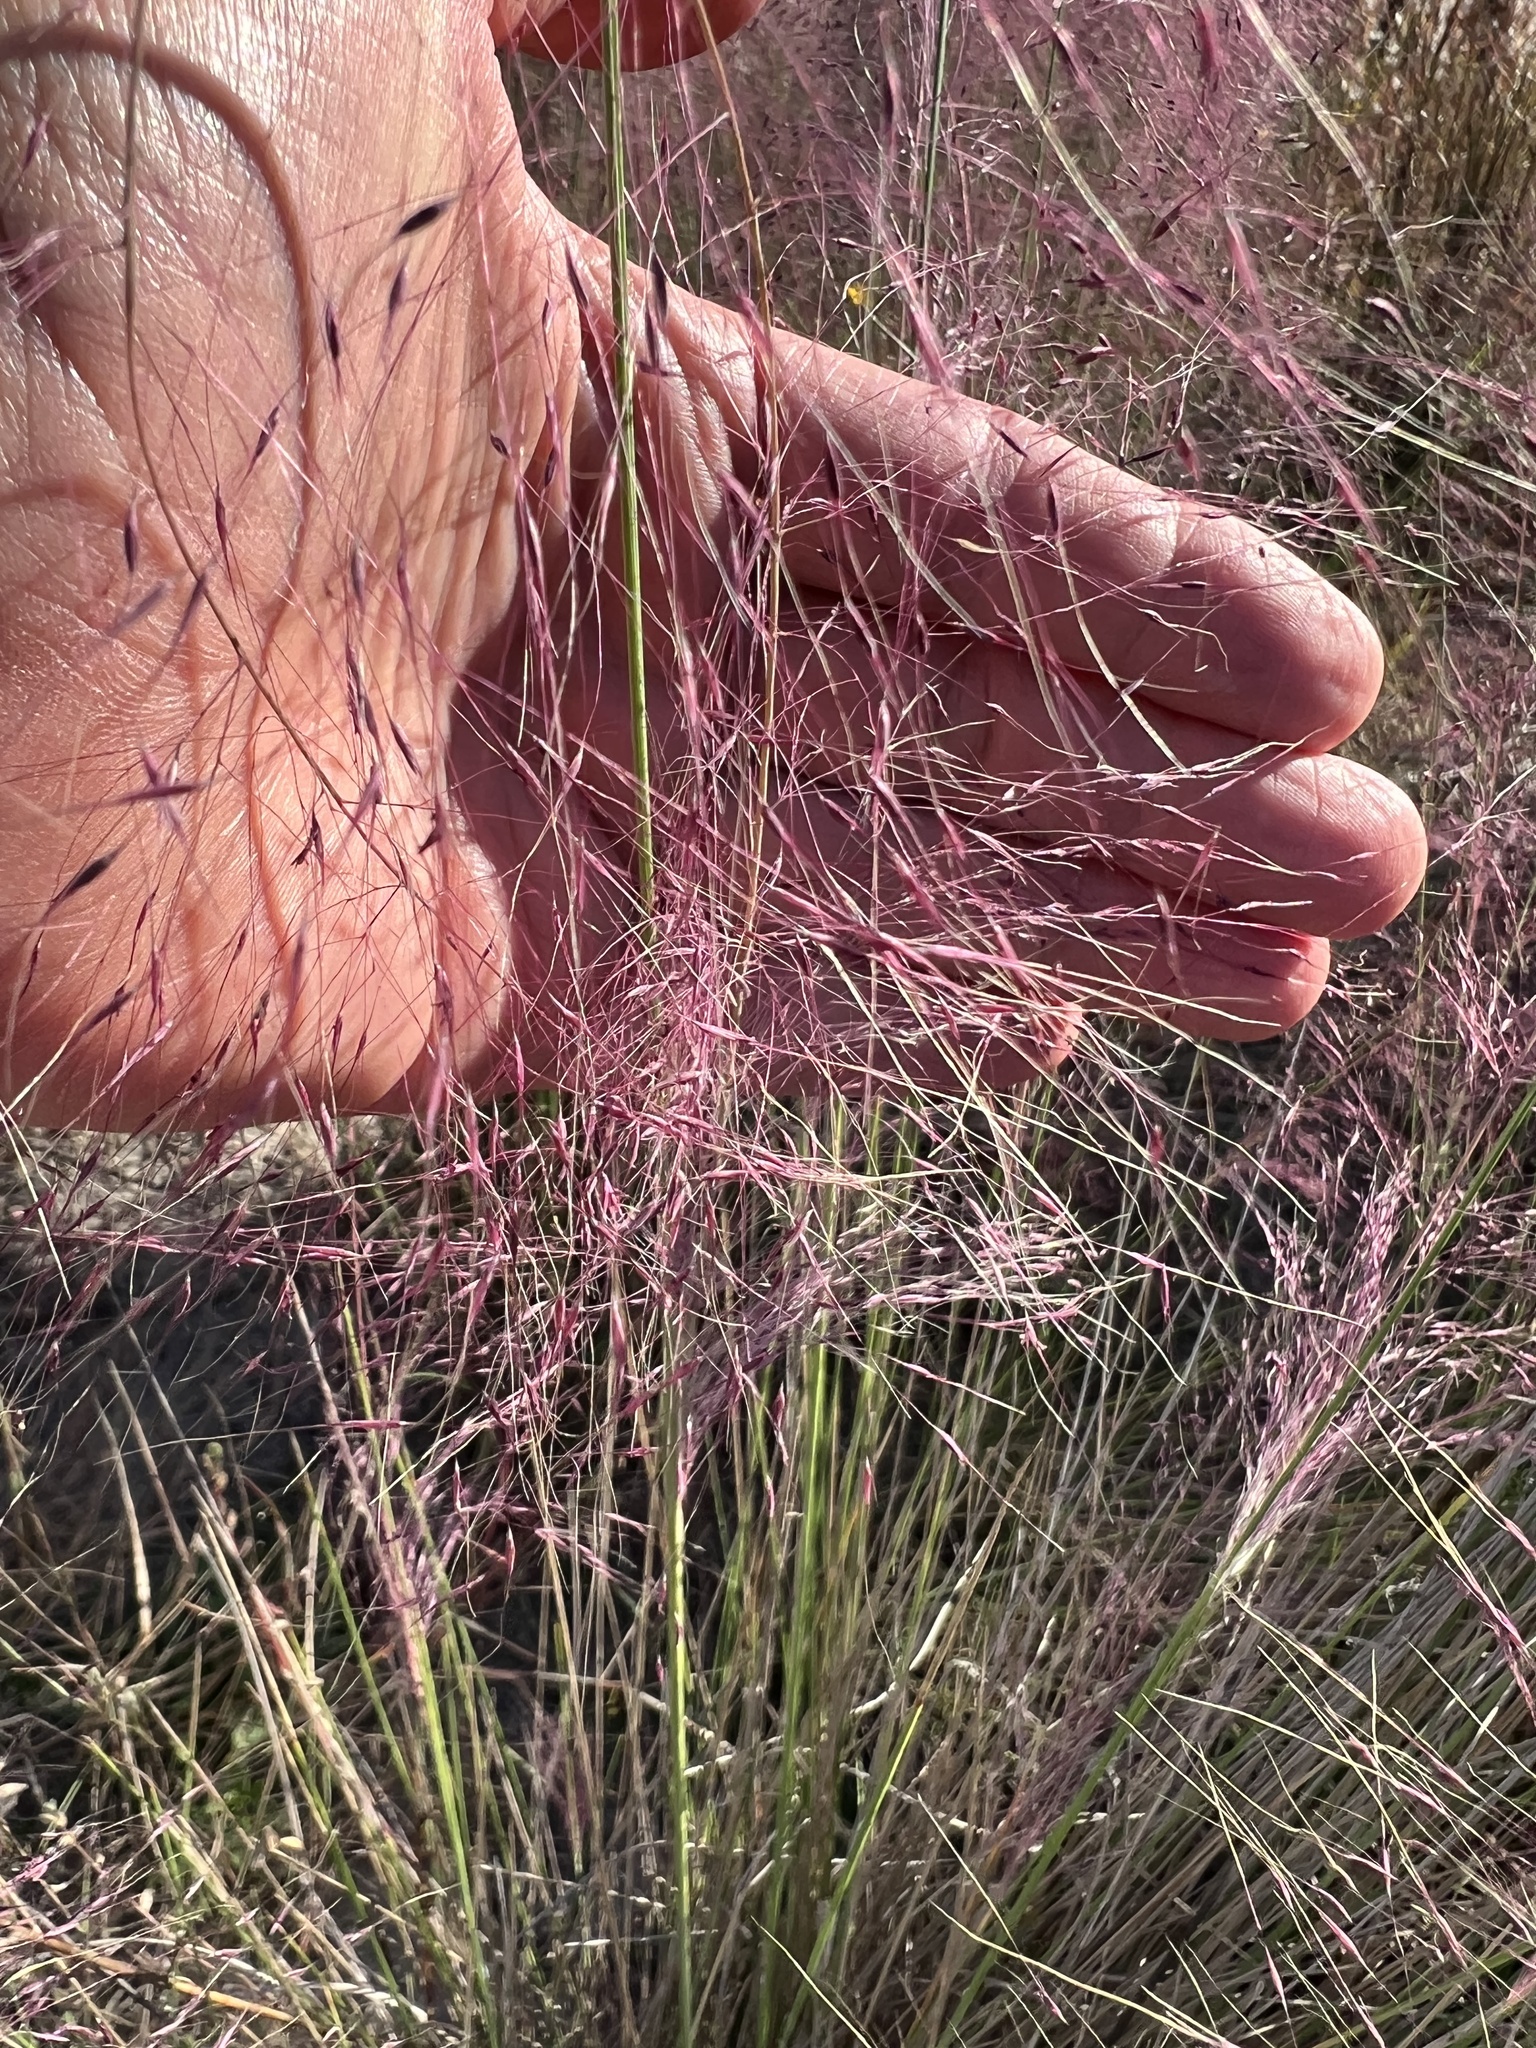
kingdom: Plantae
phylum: Tracheophyta
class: Liliopsida
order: Poales
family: Poaceae
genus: Muhlenbergia
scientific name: Muhlenbergia sericea
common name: Dune-hair grass
